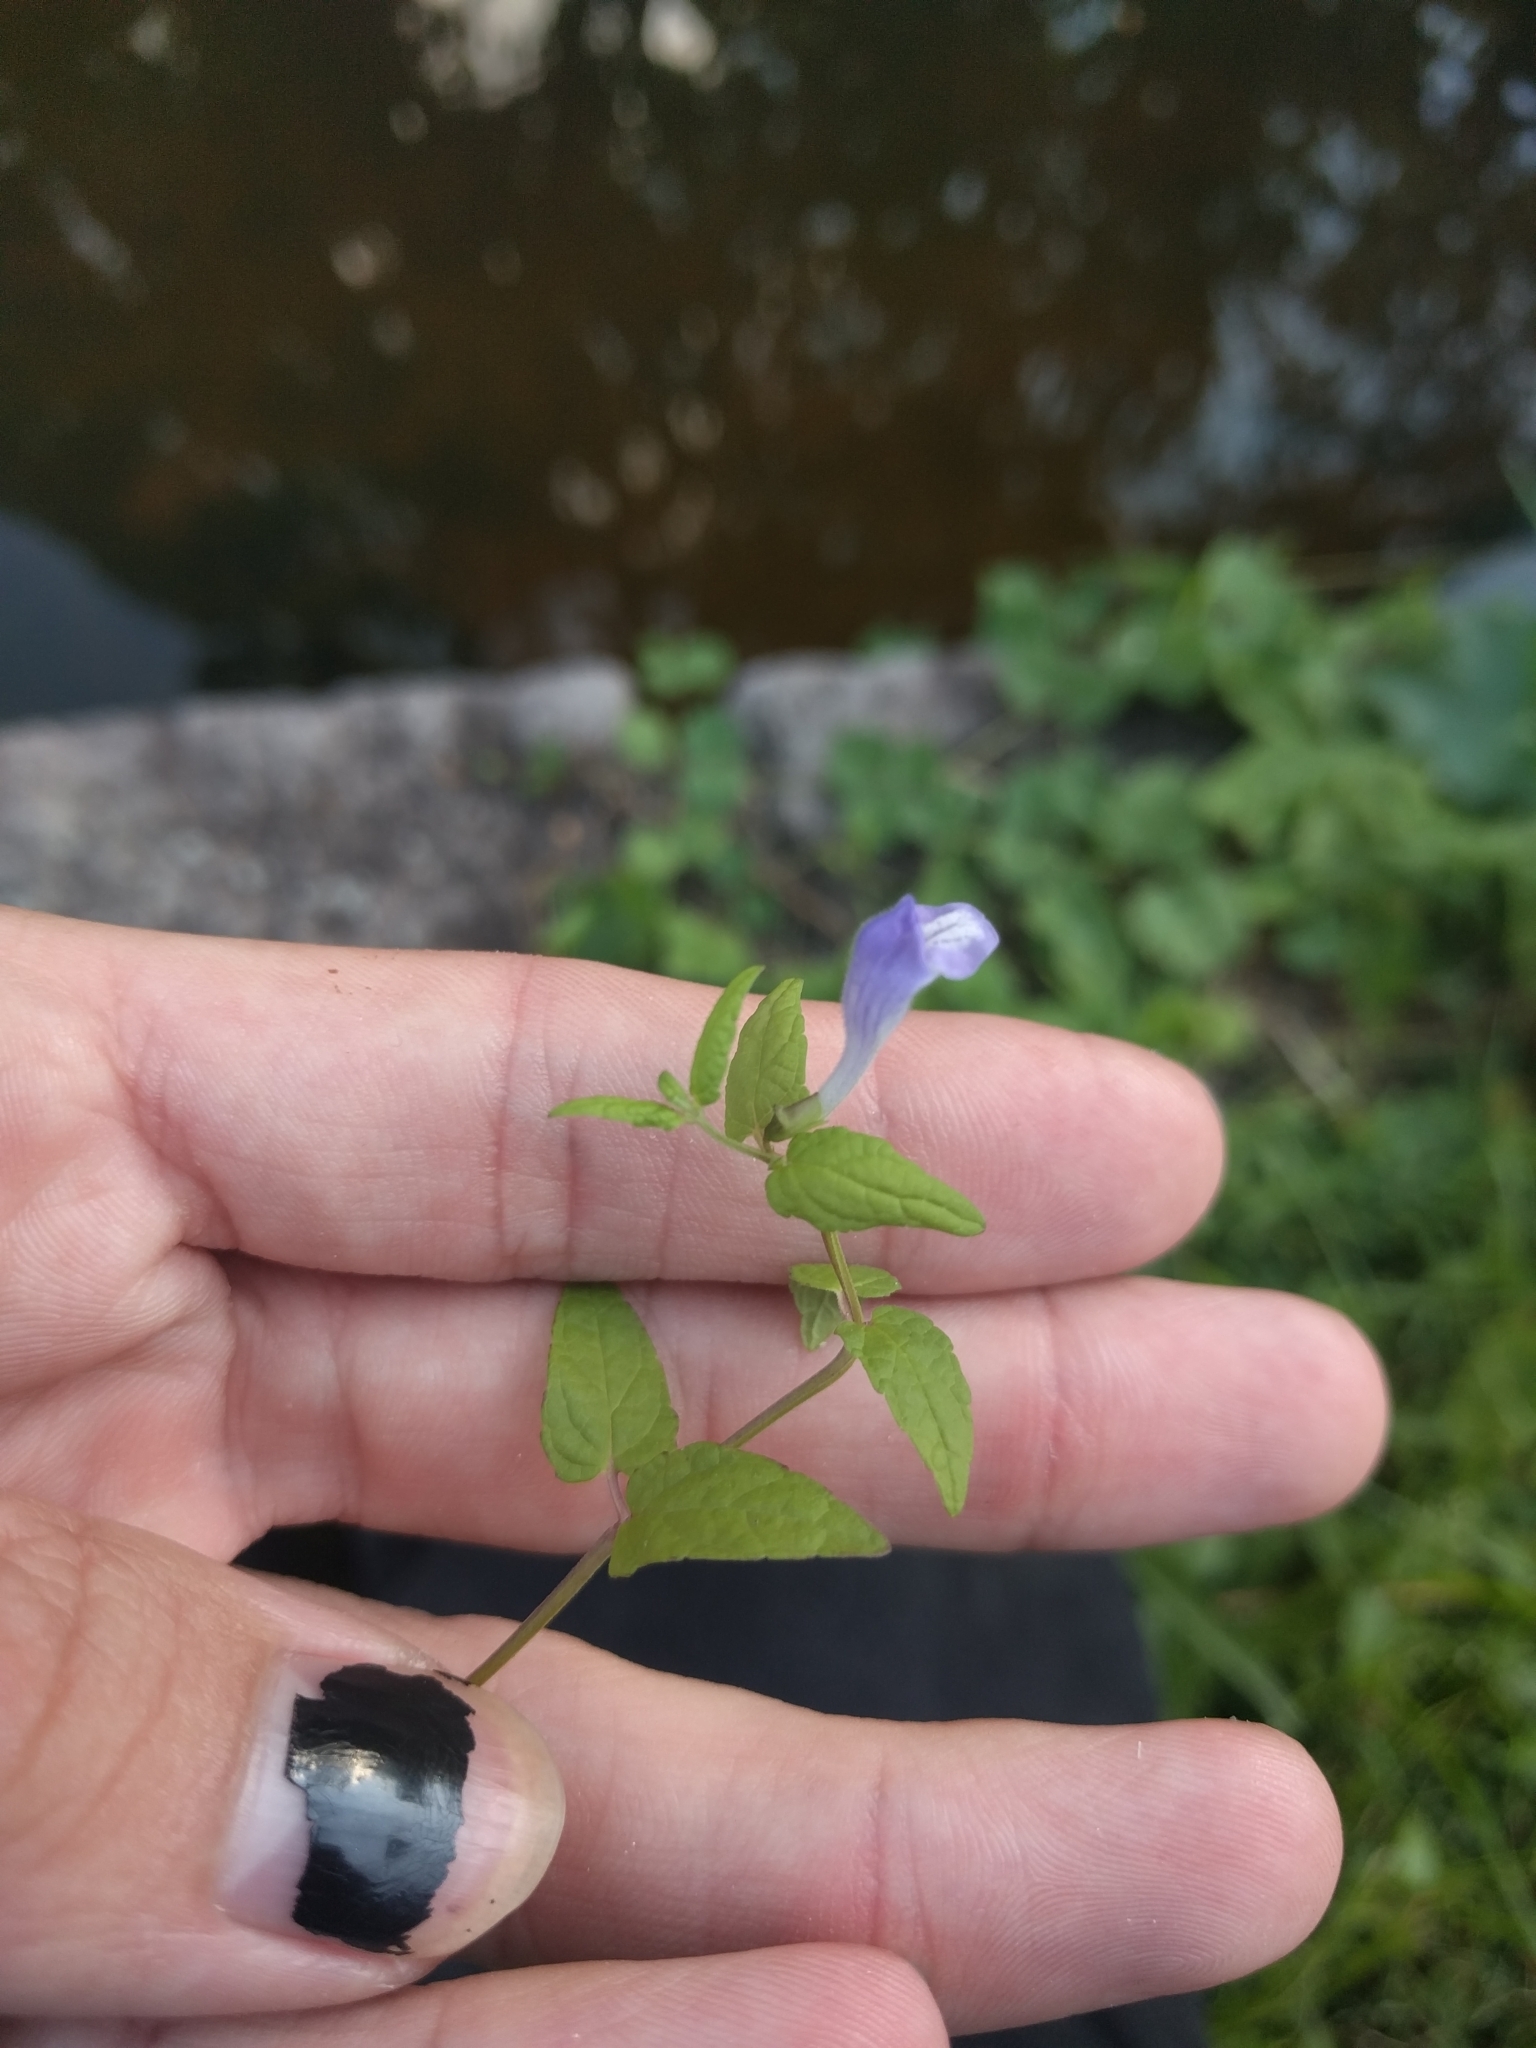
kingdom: Plantae
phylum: Tracheophyta
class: Magnoliopsida
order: Lamiales
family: Lamiaceae
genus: Scutellaria
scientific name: Scutellaria galericulata
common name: Skullcap
